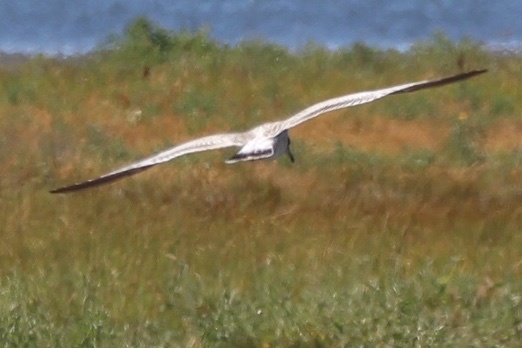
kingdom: Animalia
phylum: Chordata
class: Aves
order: Charadriiformes
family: Laridae
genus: Larus
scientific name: Larus delawarensis
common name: Ring-billed gull
